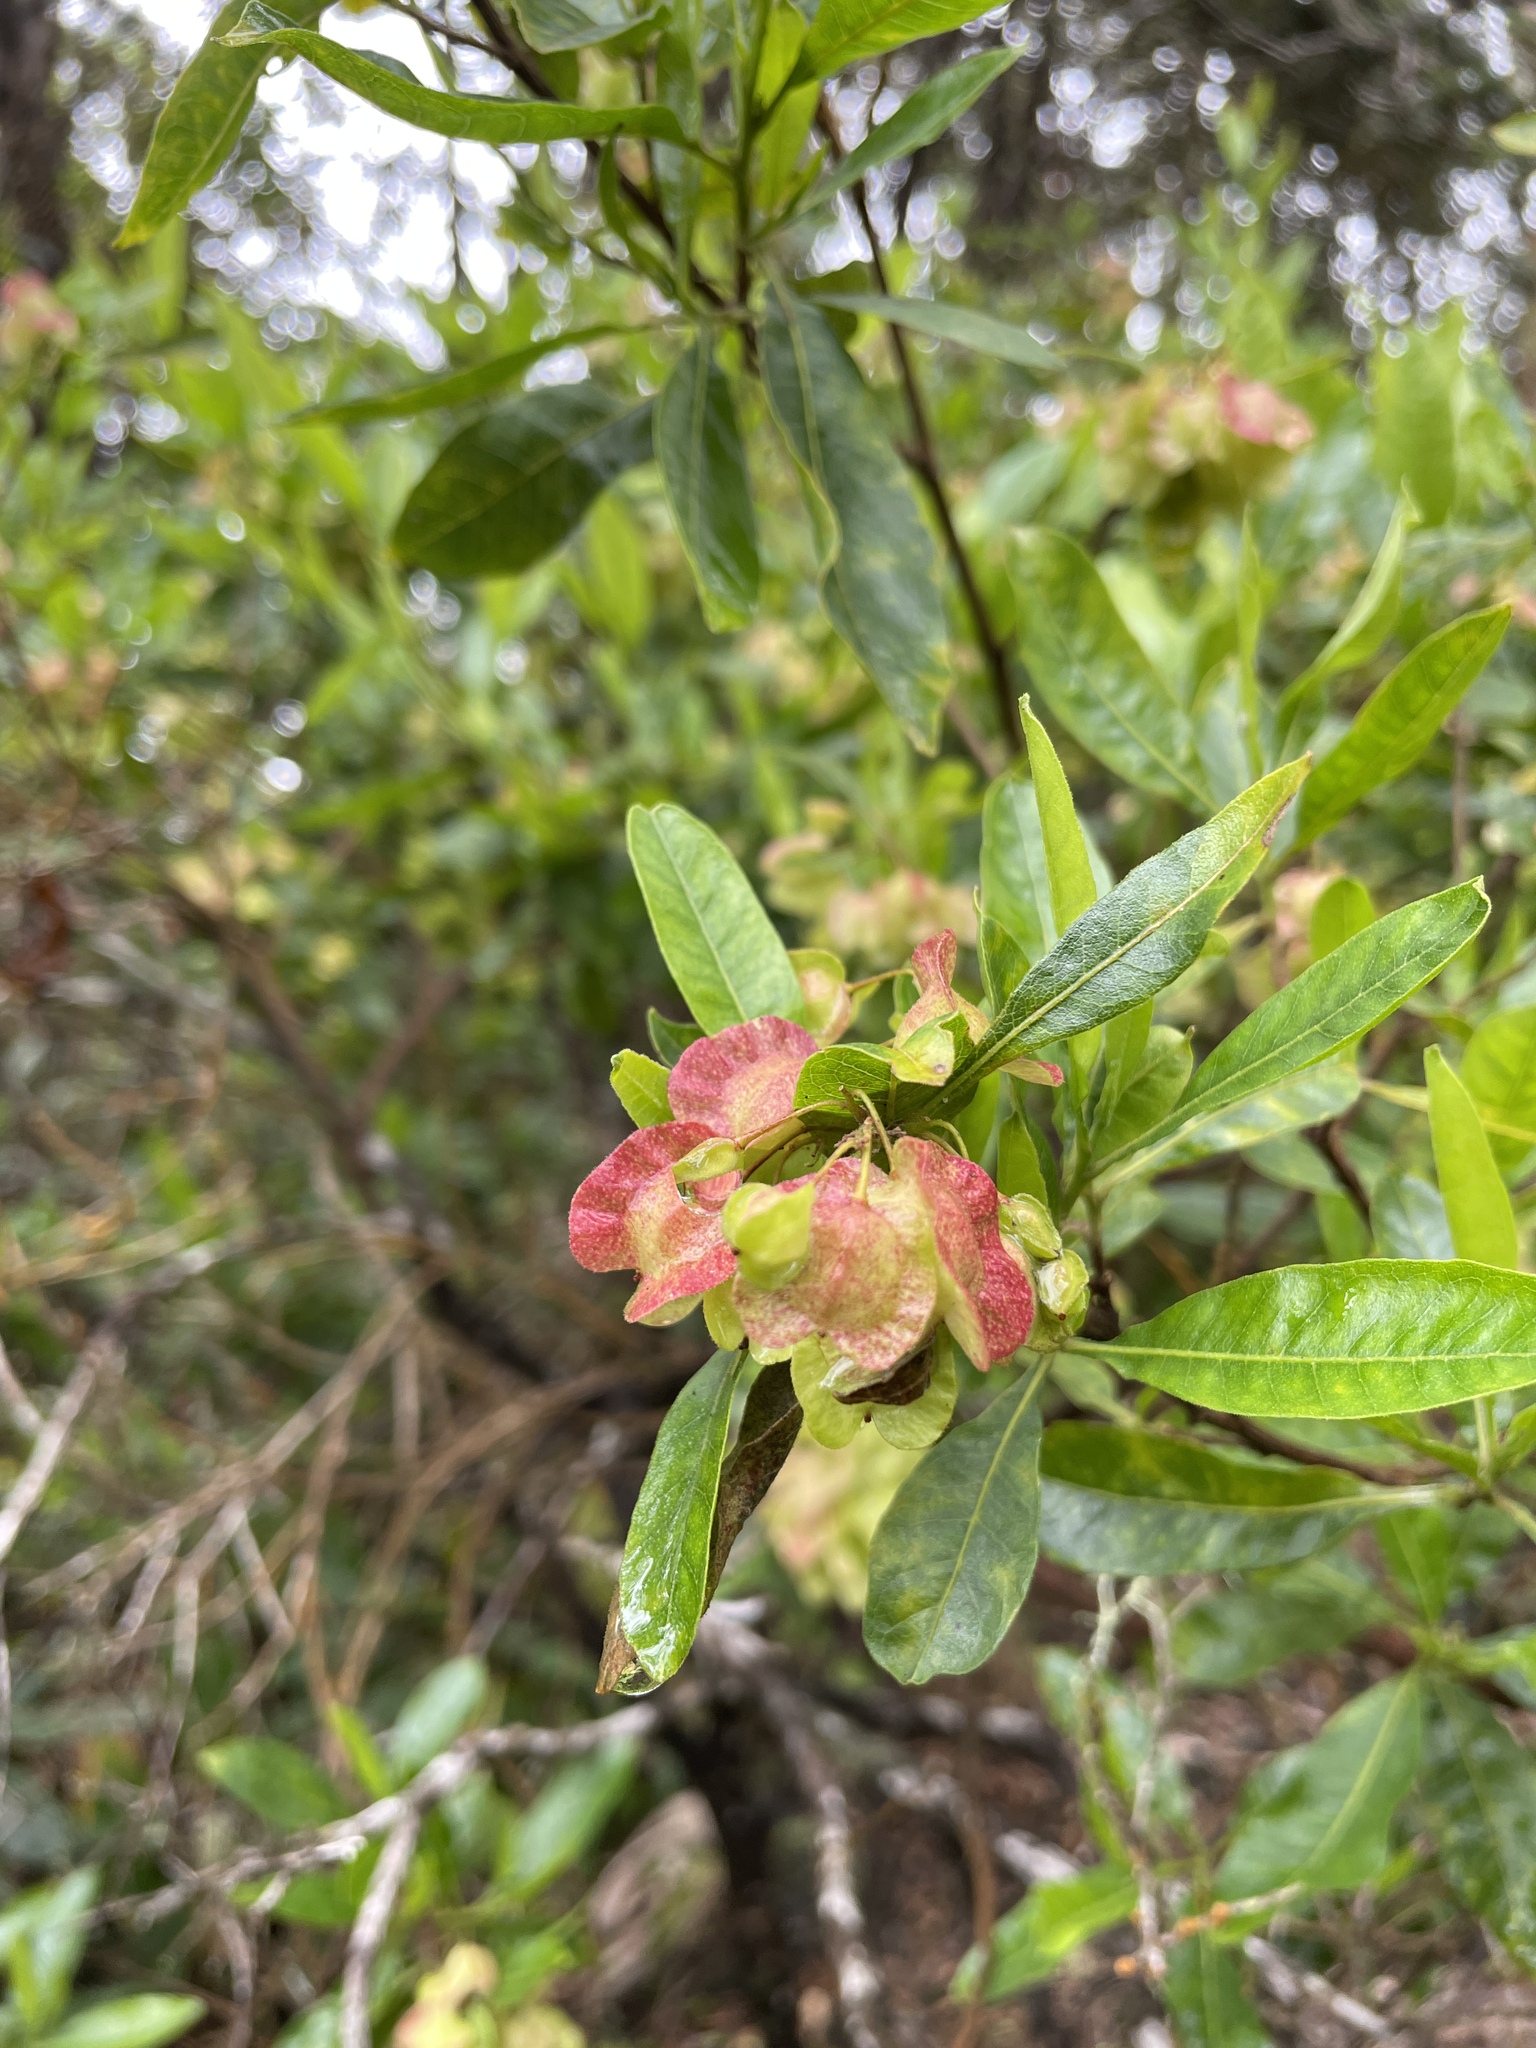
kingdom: Plantae
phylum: Tracheophyta
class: Magnoliopsida
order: Sapindales
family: Sapindaceae
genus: Dodonaea
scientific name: Dodonaea viscosa
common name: Hopbush
